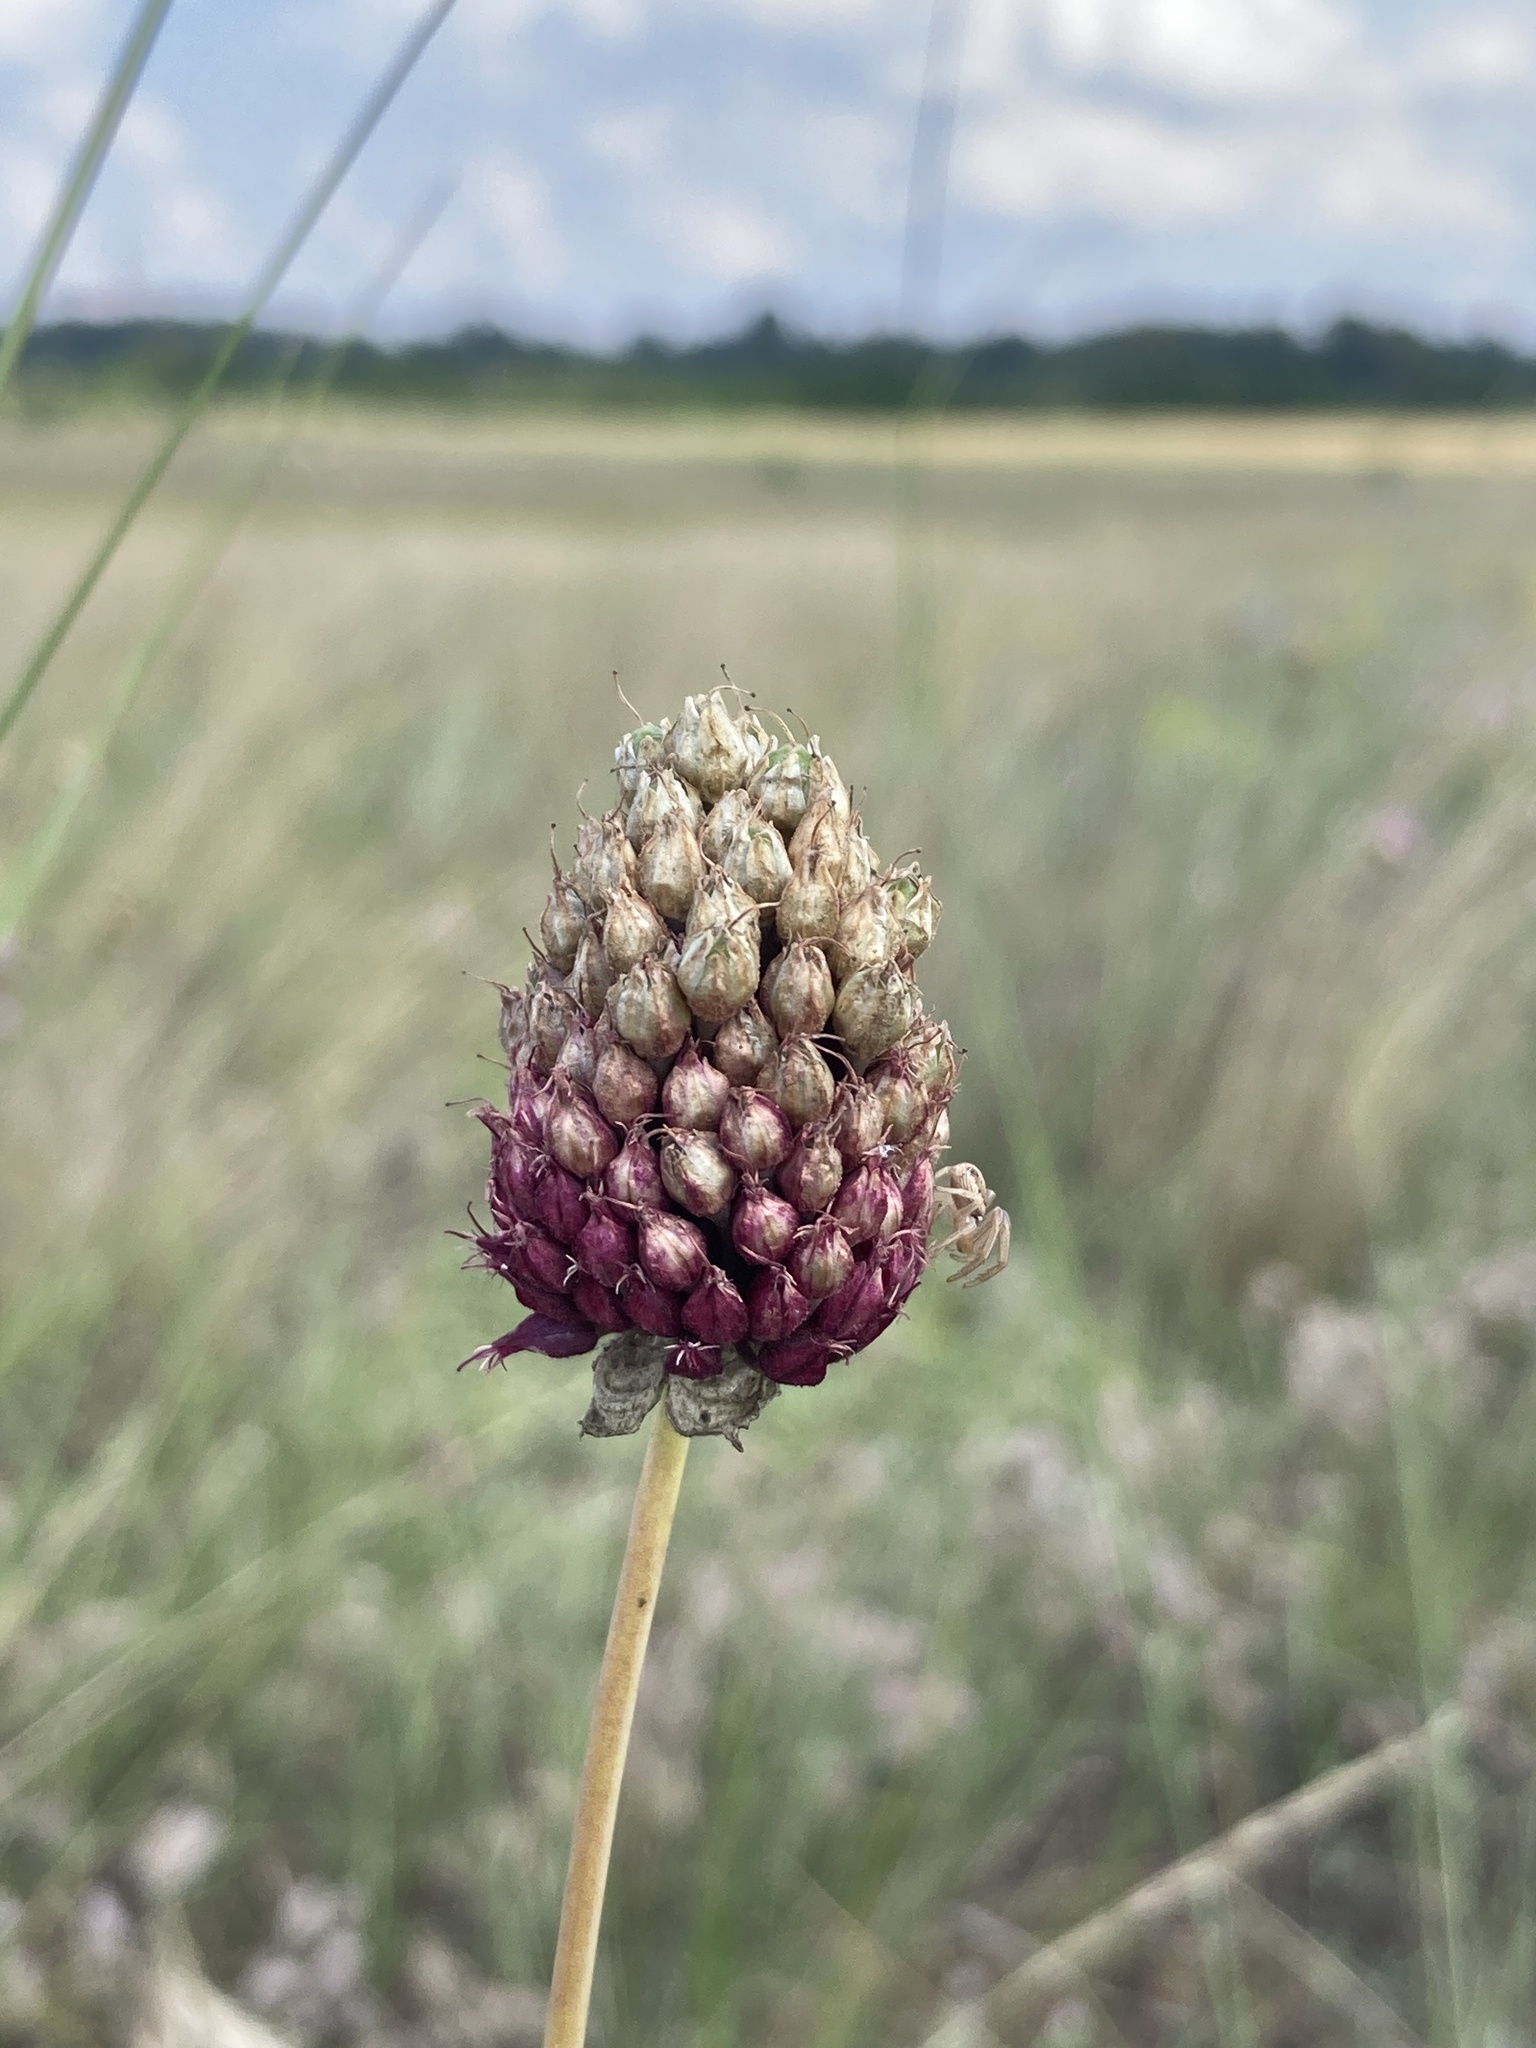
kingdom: Plantae
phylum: Tracheophyta
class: Liliopsida
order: Asparagales
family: Amaryllidaceae
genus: Allium
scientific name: Allium sphaerocephalon
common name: Round-headed leek
